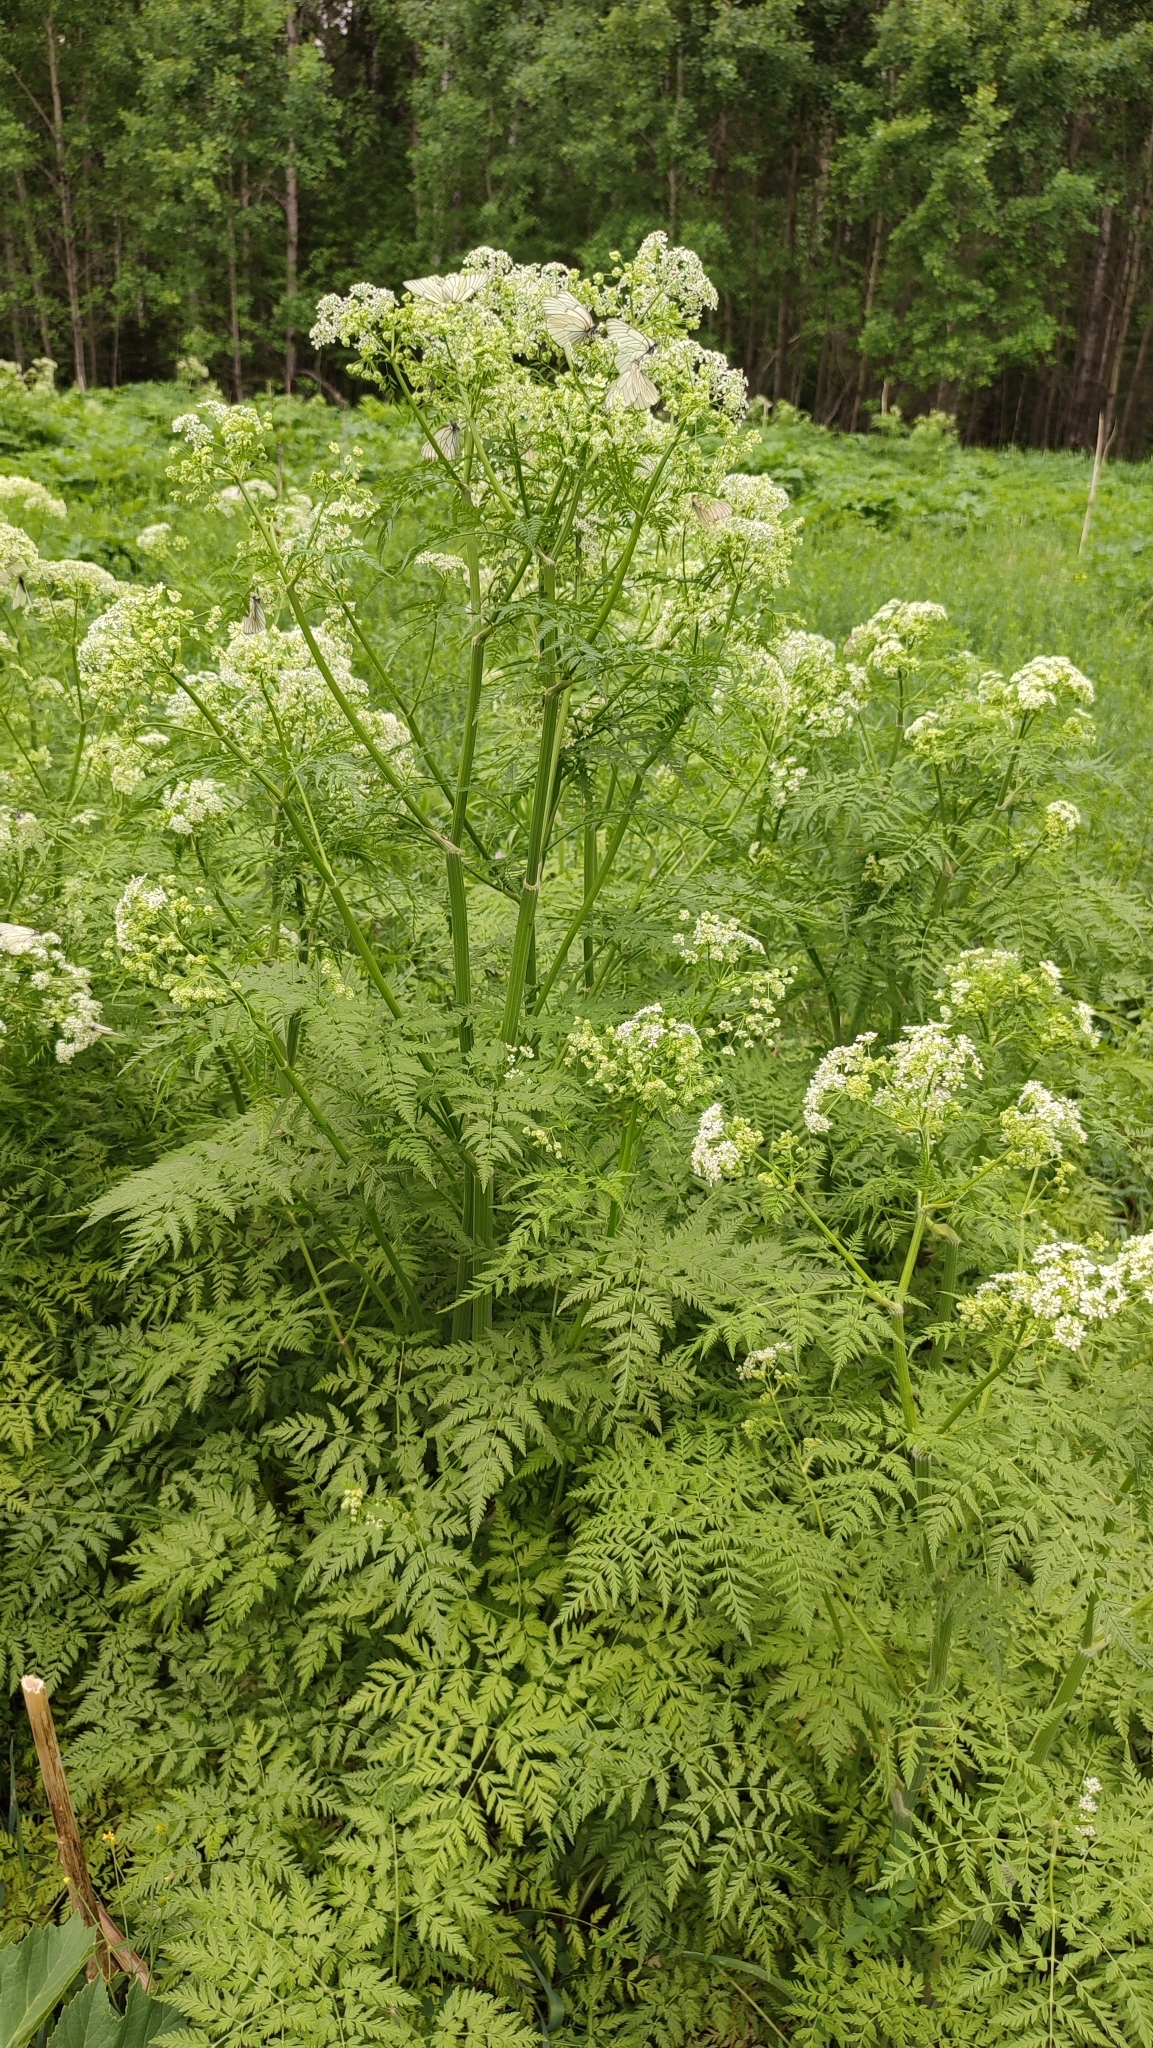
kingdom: Plantae
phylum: Tracheophyta
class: Magnoliopsida
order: Apiales
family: Apiaceae
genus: Anthriscus
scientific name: Anthriscus sylvestris
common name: Cow parsley
